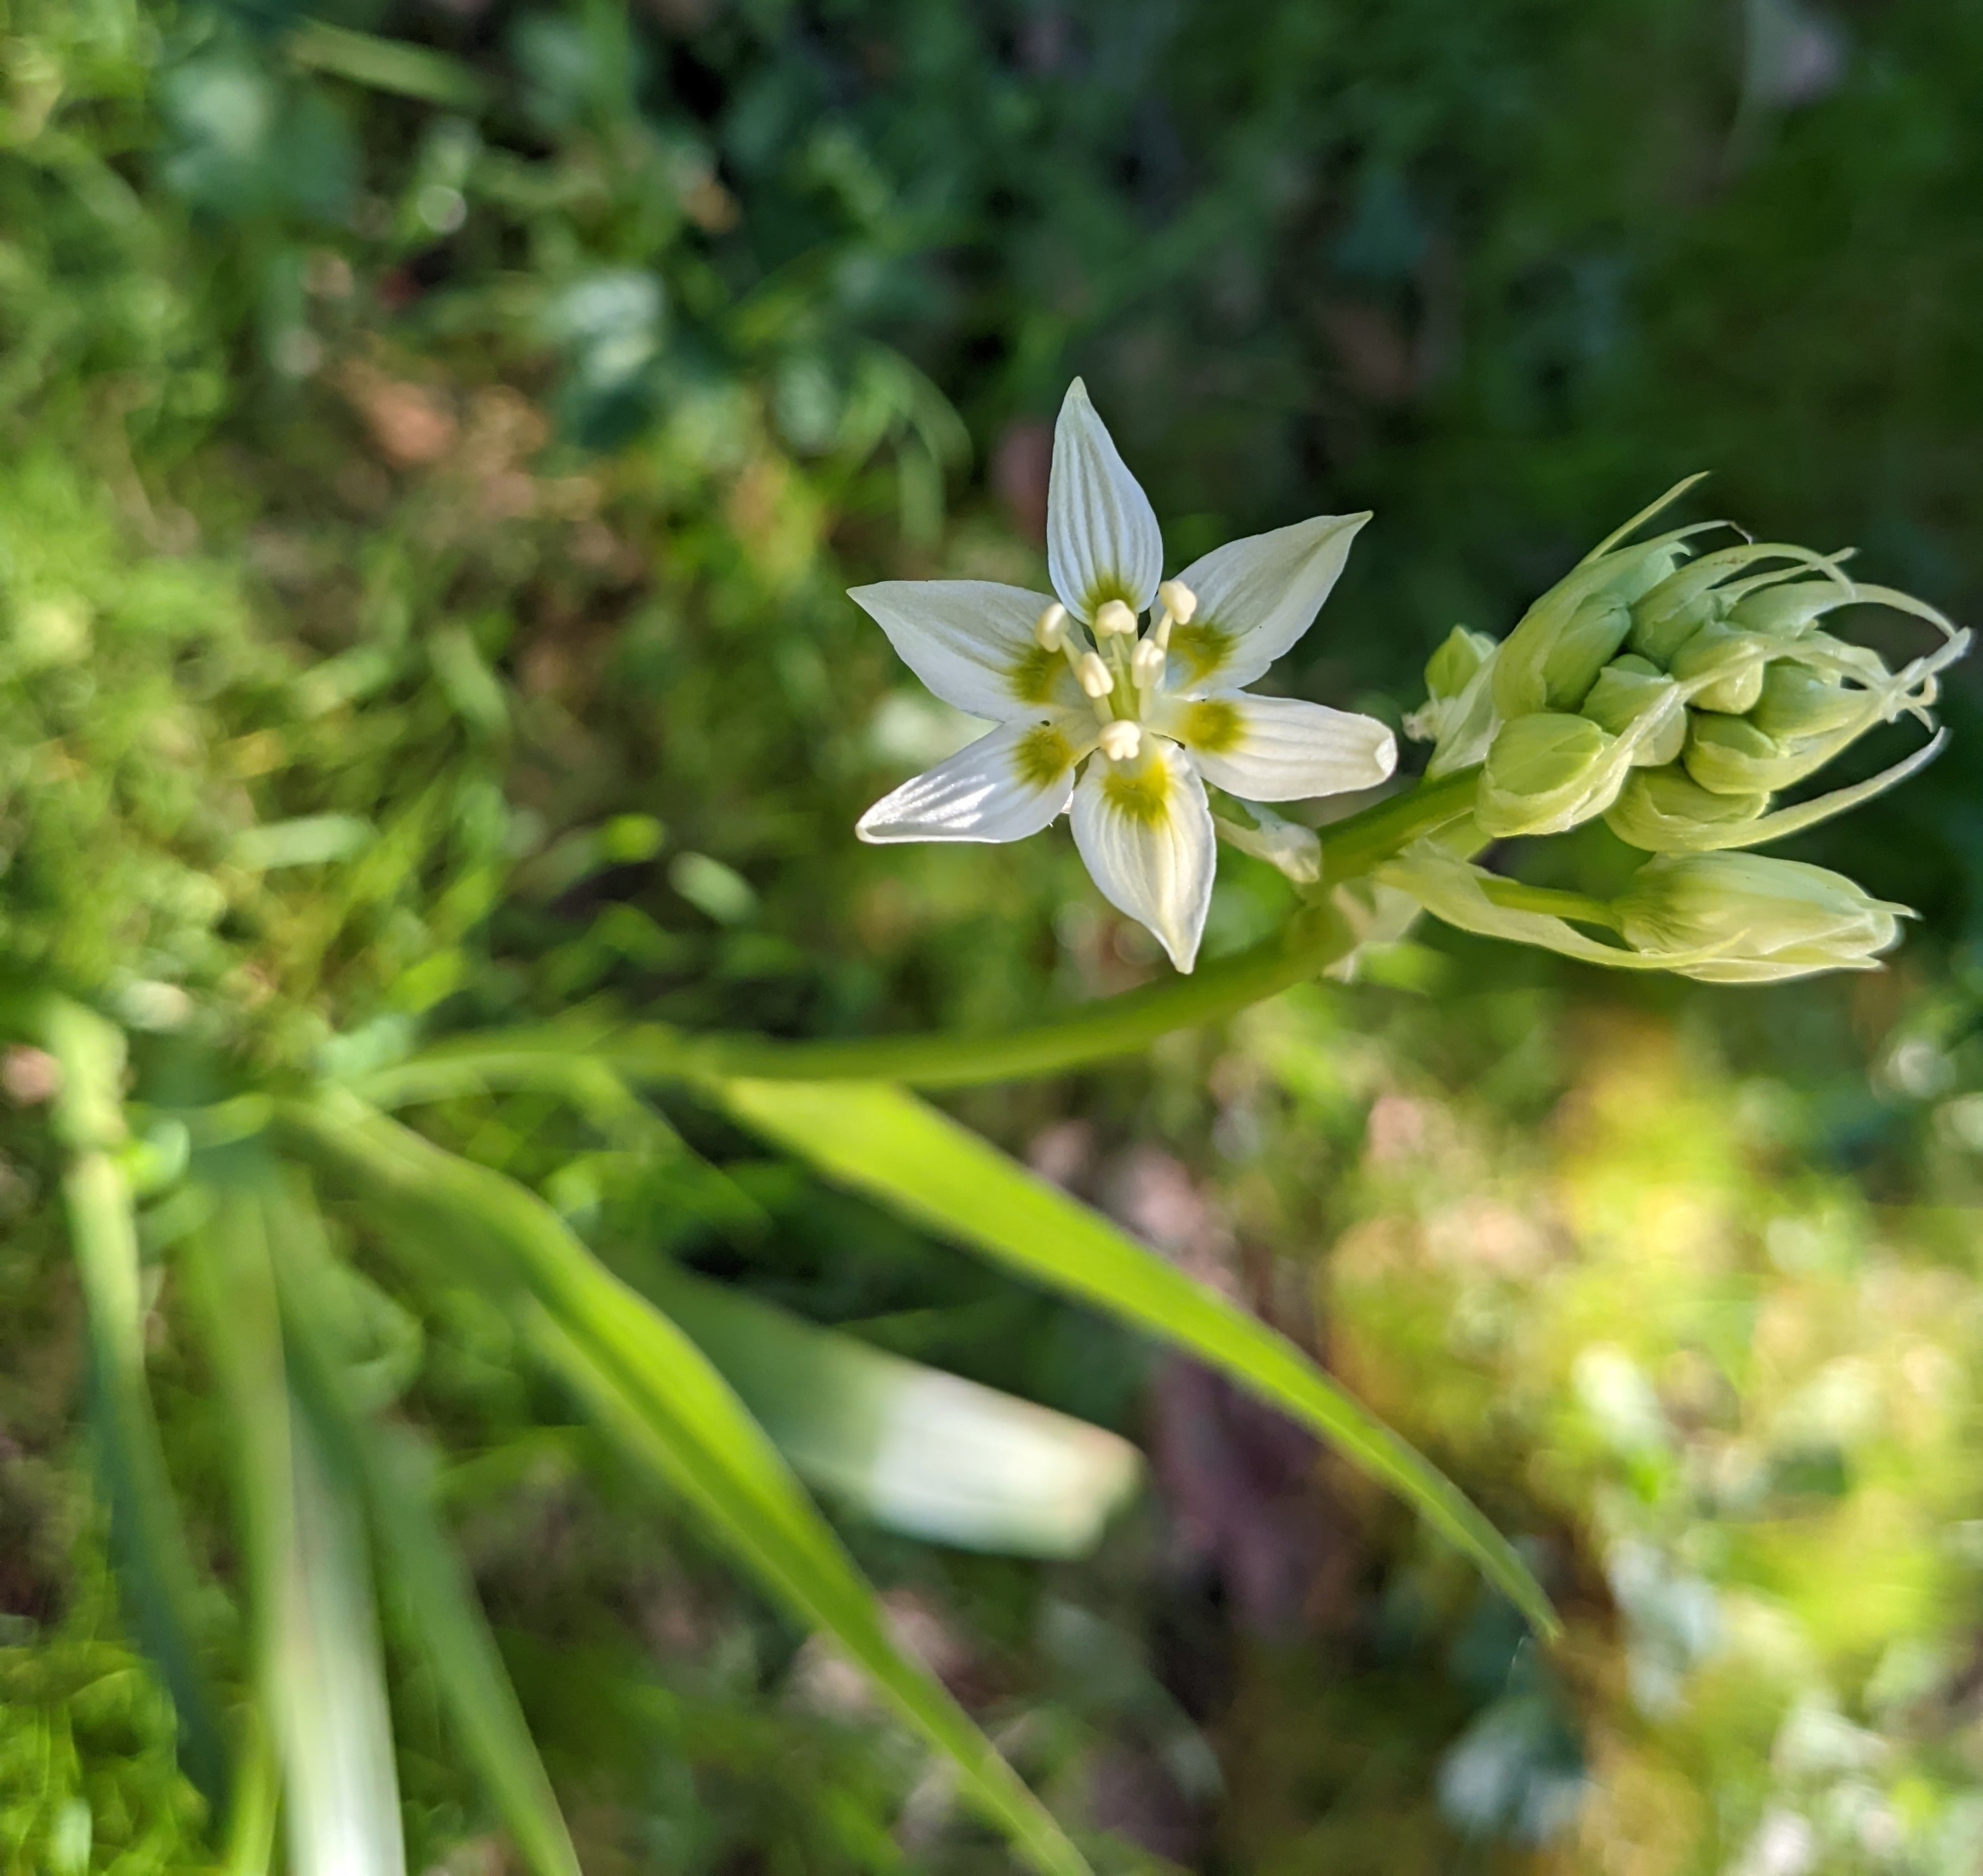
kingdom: Plantae
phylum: Tracheophyta
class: Liliopsida
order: Liliales
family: Melanthiaceae
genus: Toxicoscordion
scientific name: Toxicoscordion fremontii
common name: Fremont's death camas
